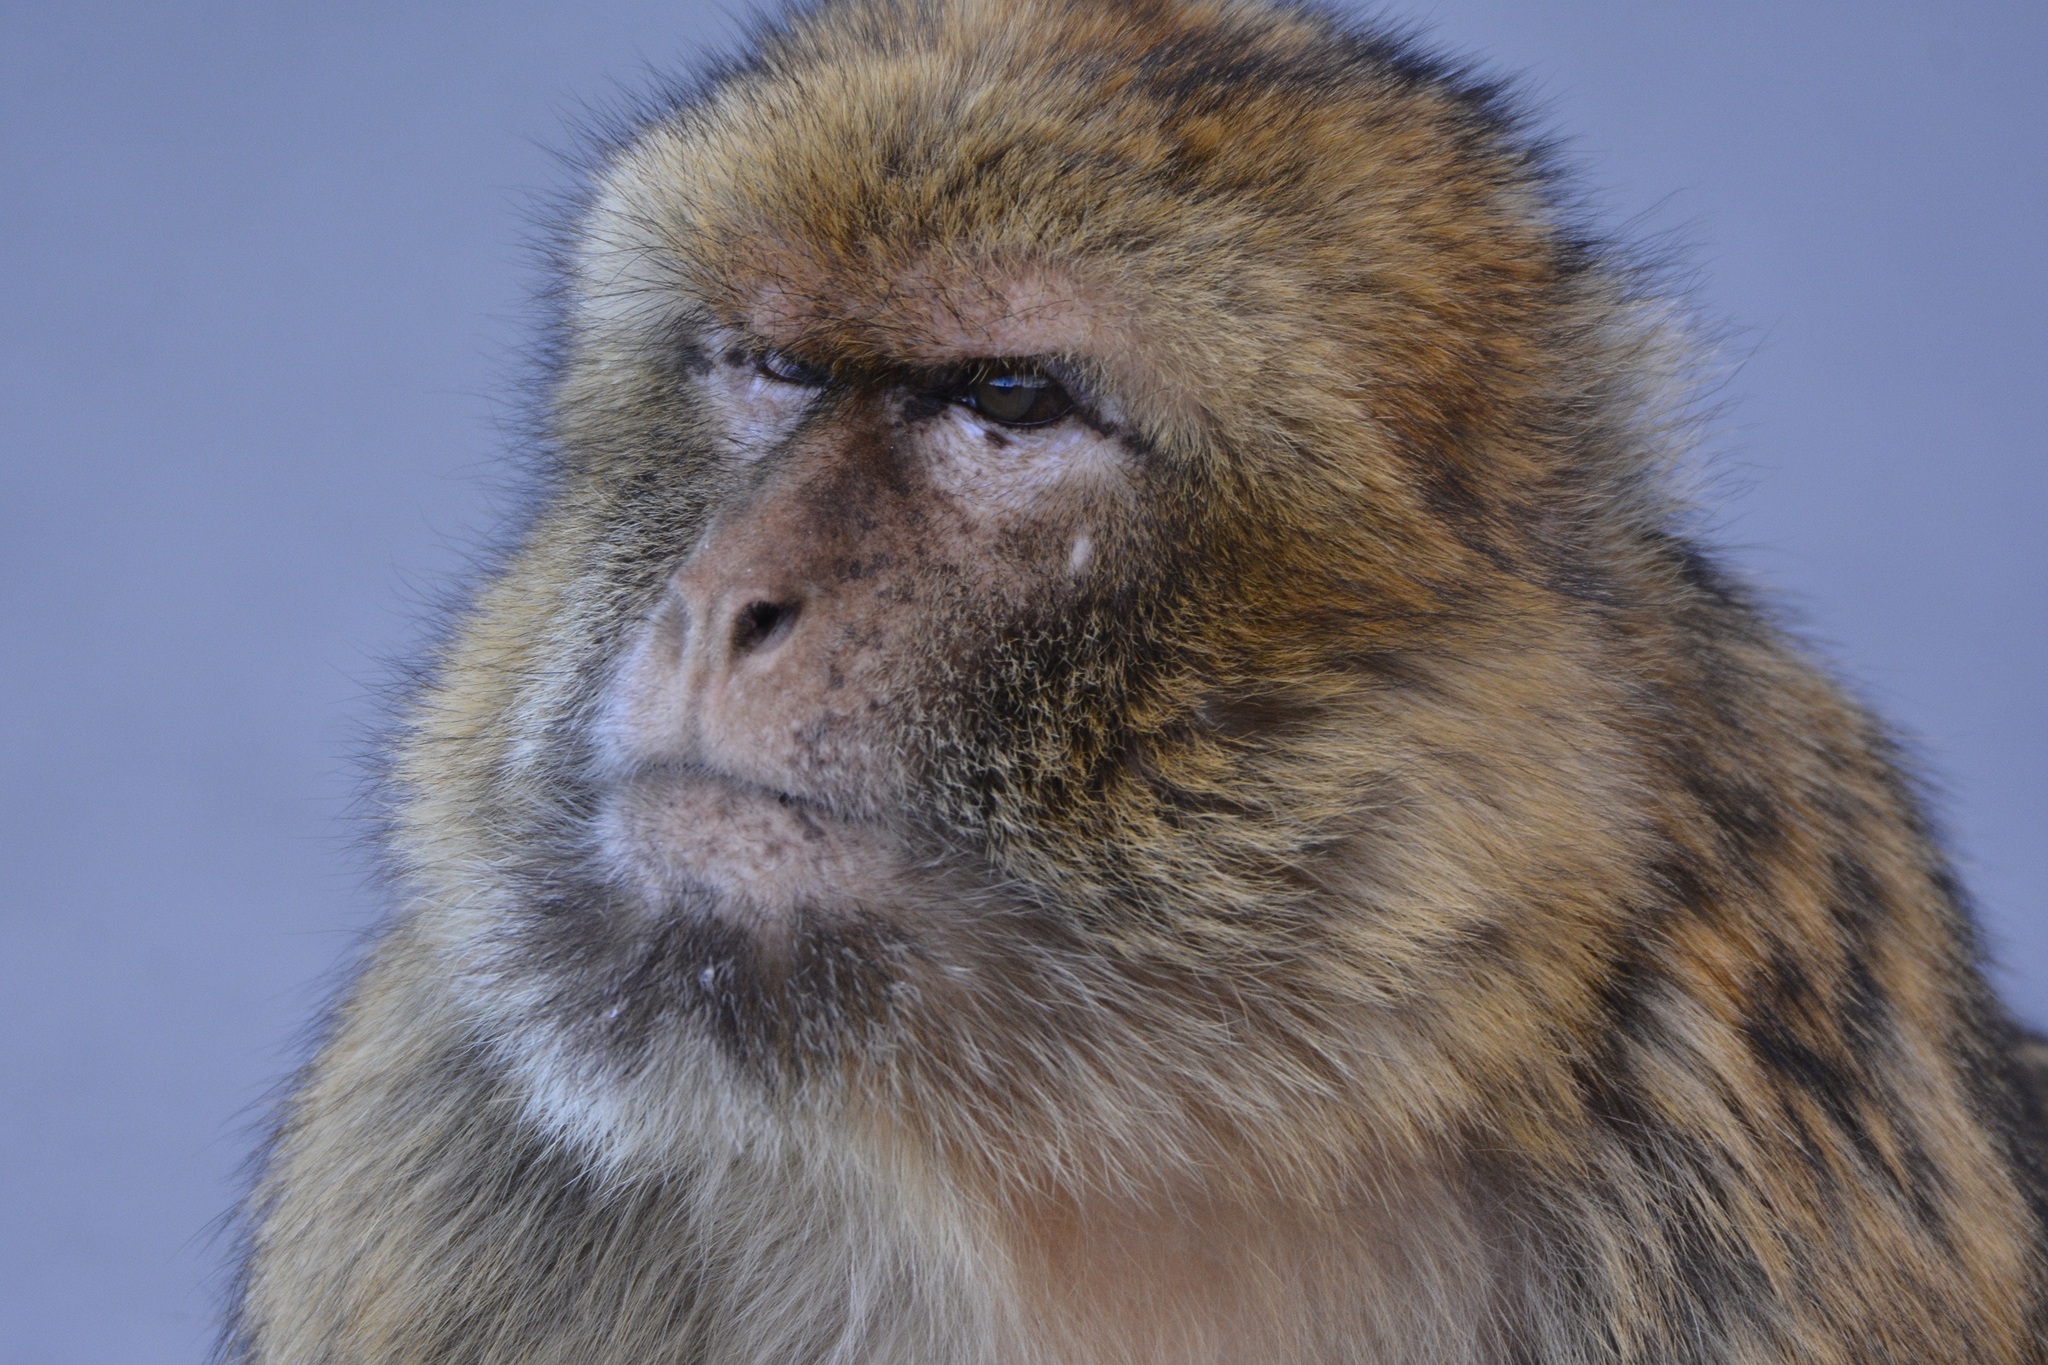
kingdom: Animalia
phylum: Chordata
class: Mammalia
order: Primates
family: Cercopithecidae
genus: Macaca
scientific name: Macaca sylvanus
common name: Barbary macaque
